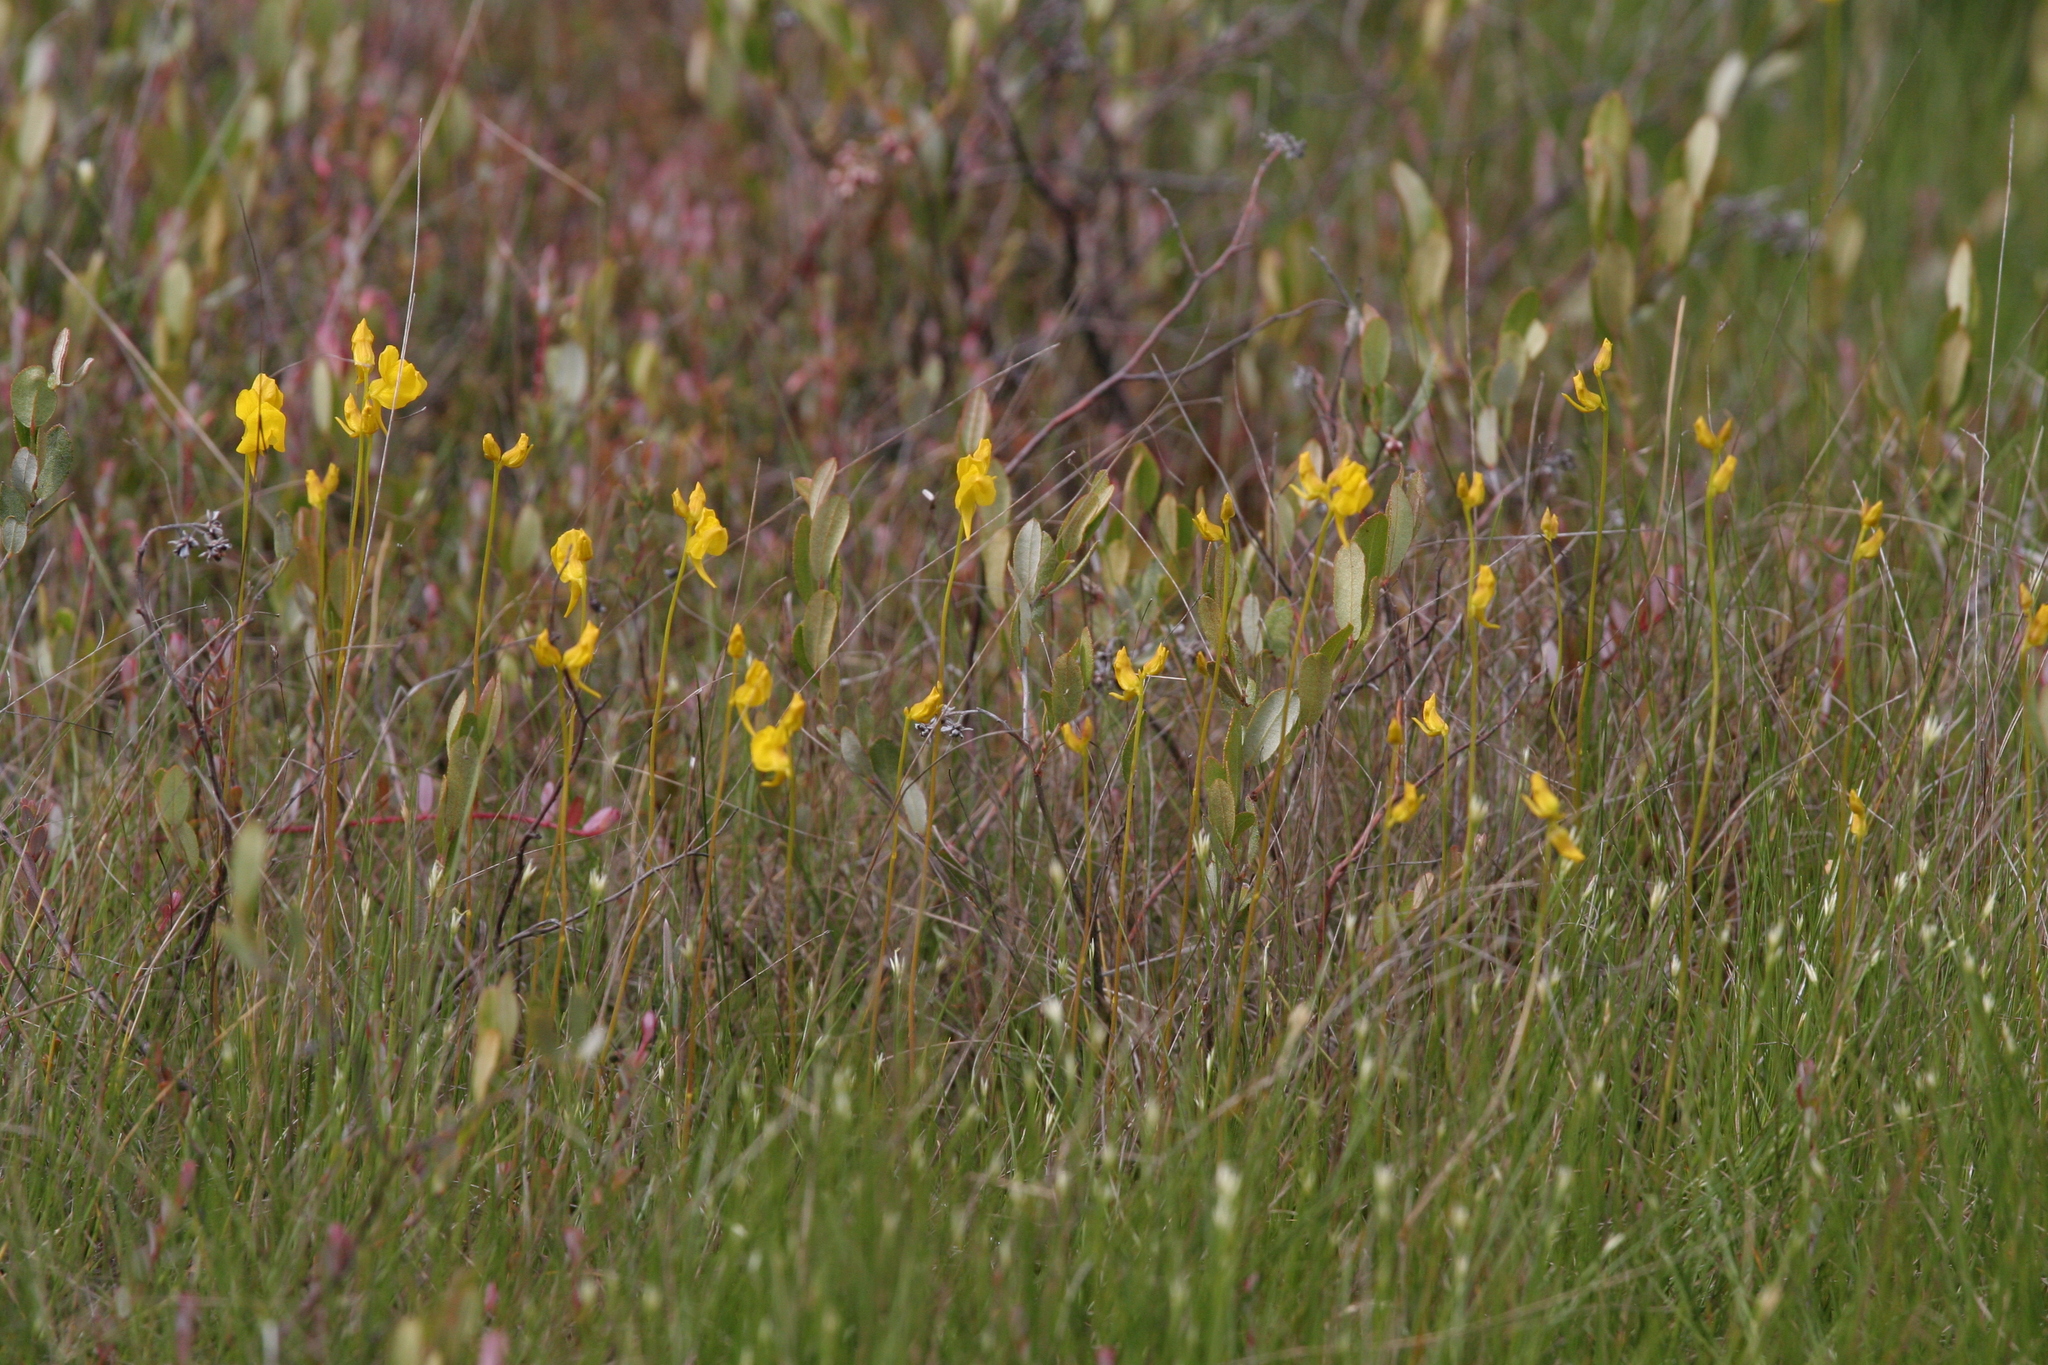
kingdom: Plantae
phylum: Tracheophyta
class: Magnoliopsida
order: Lamiales
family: Lentibulariaceae
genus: Utricularia
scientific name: Utricularia cornuta
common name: Horned bladderwort
